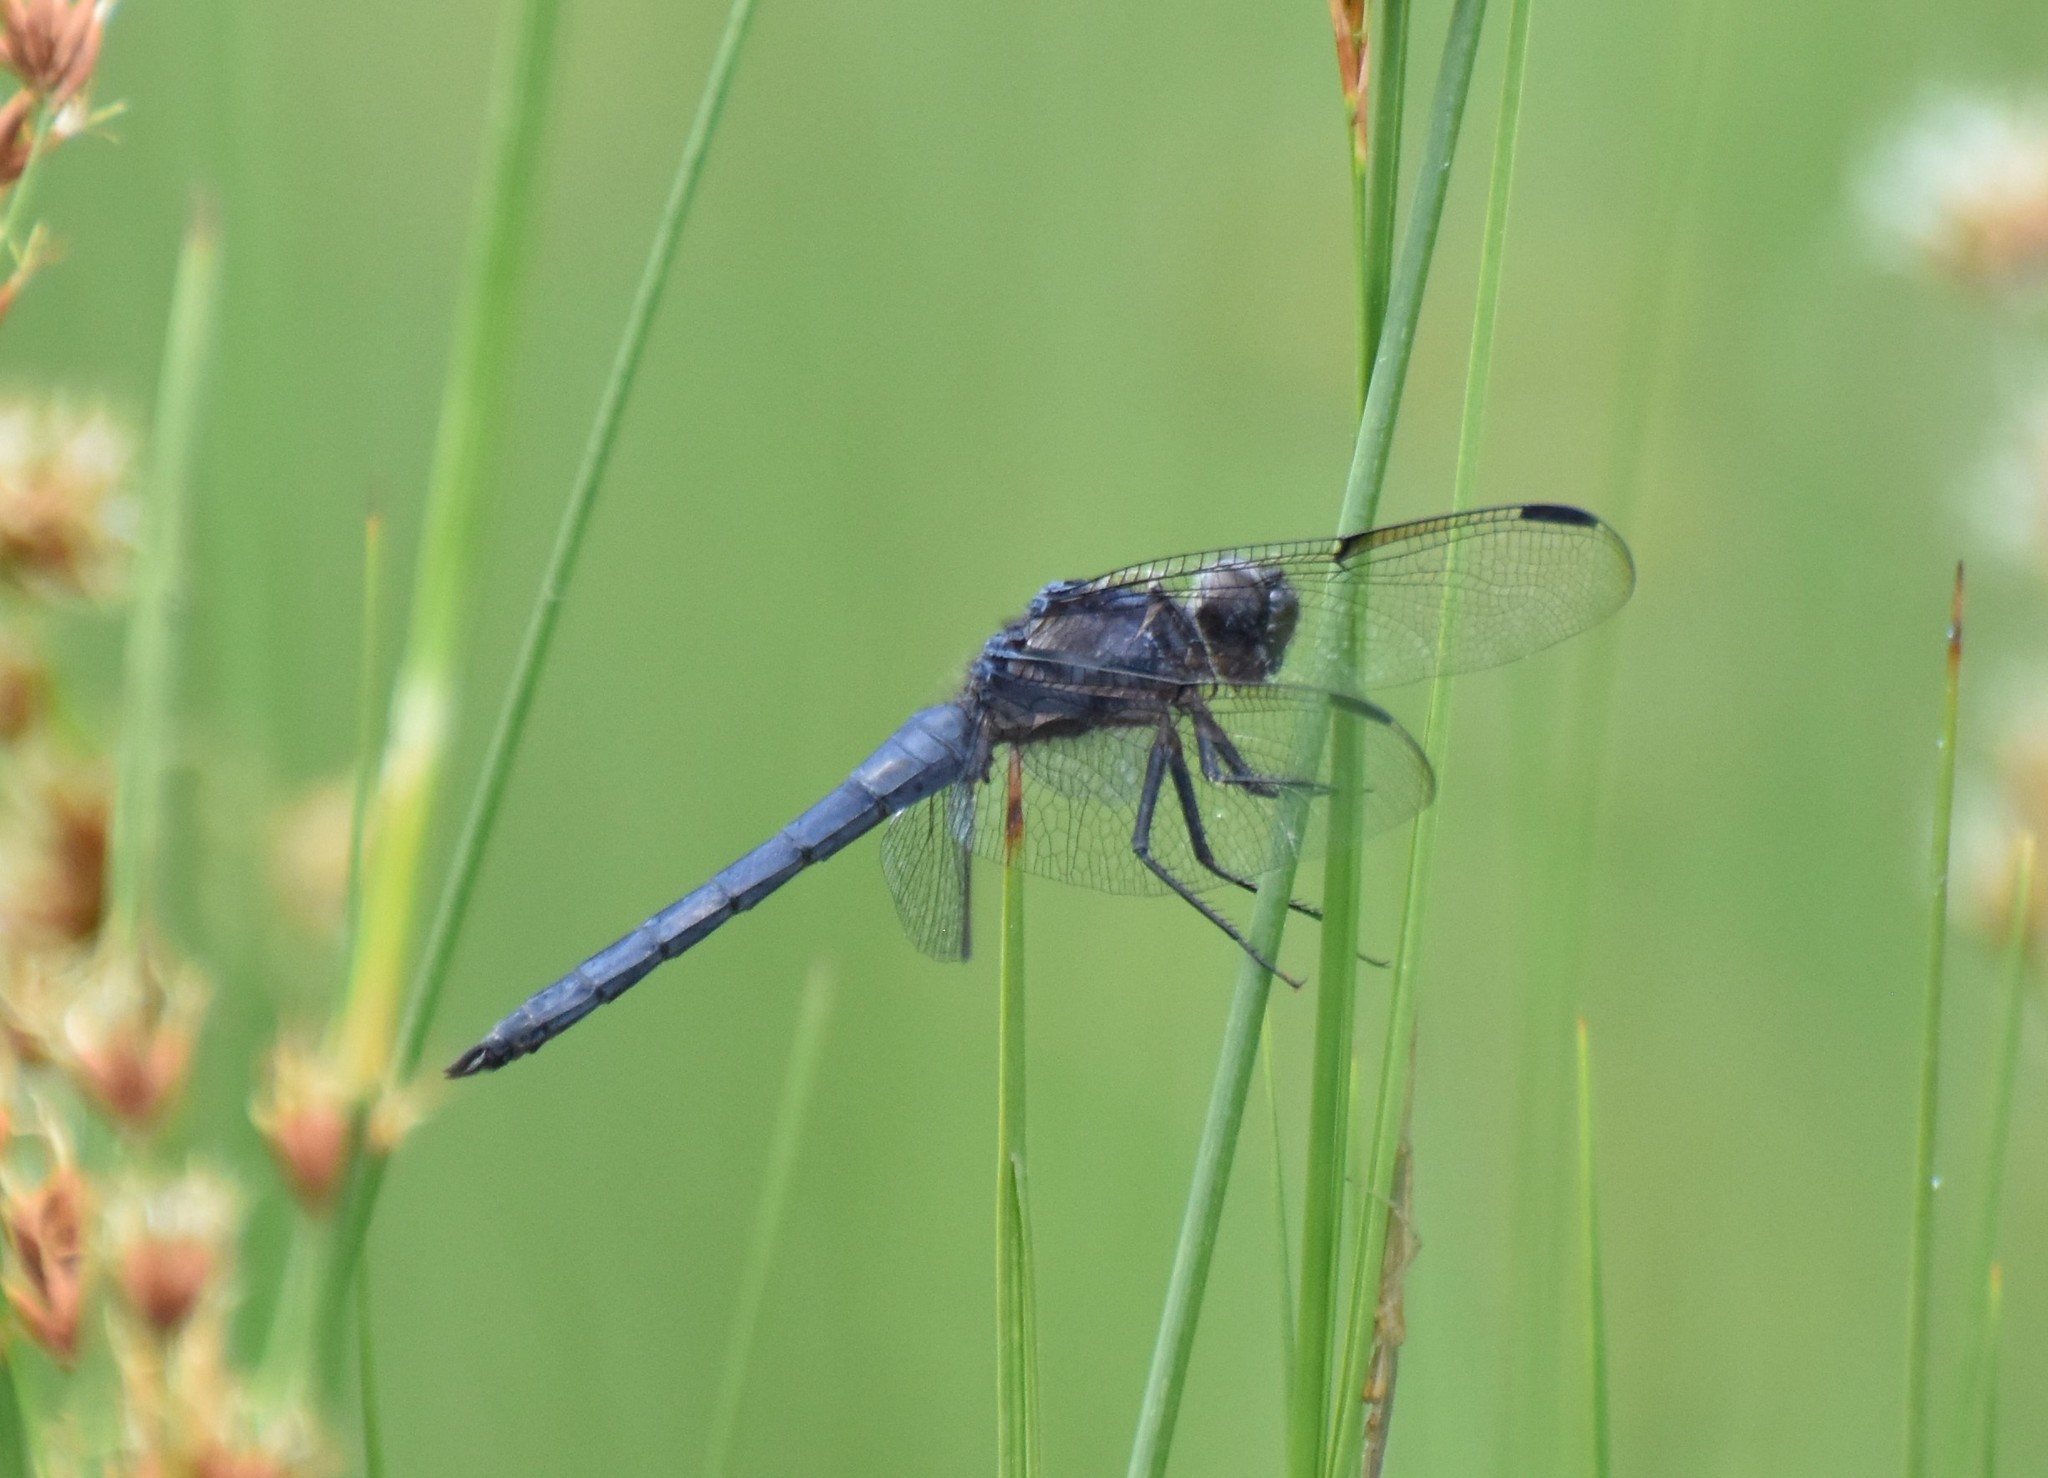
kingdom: Animalia
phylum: Arthropoda
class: Insecta
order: Odonata
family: Libellulidae
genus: Libellula
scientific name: Libellula incesta
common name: Slaty skimmer
